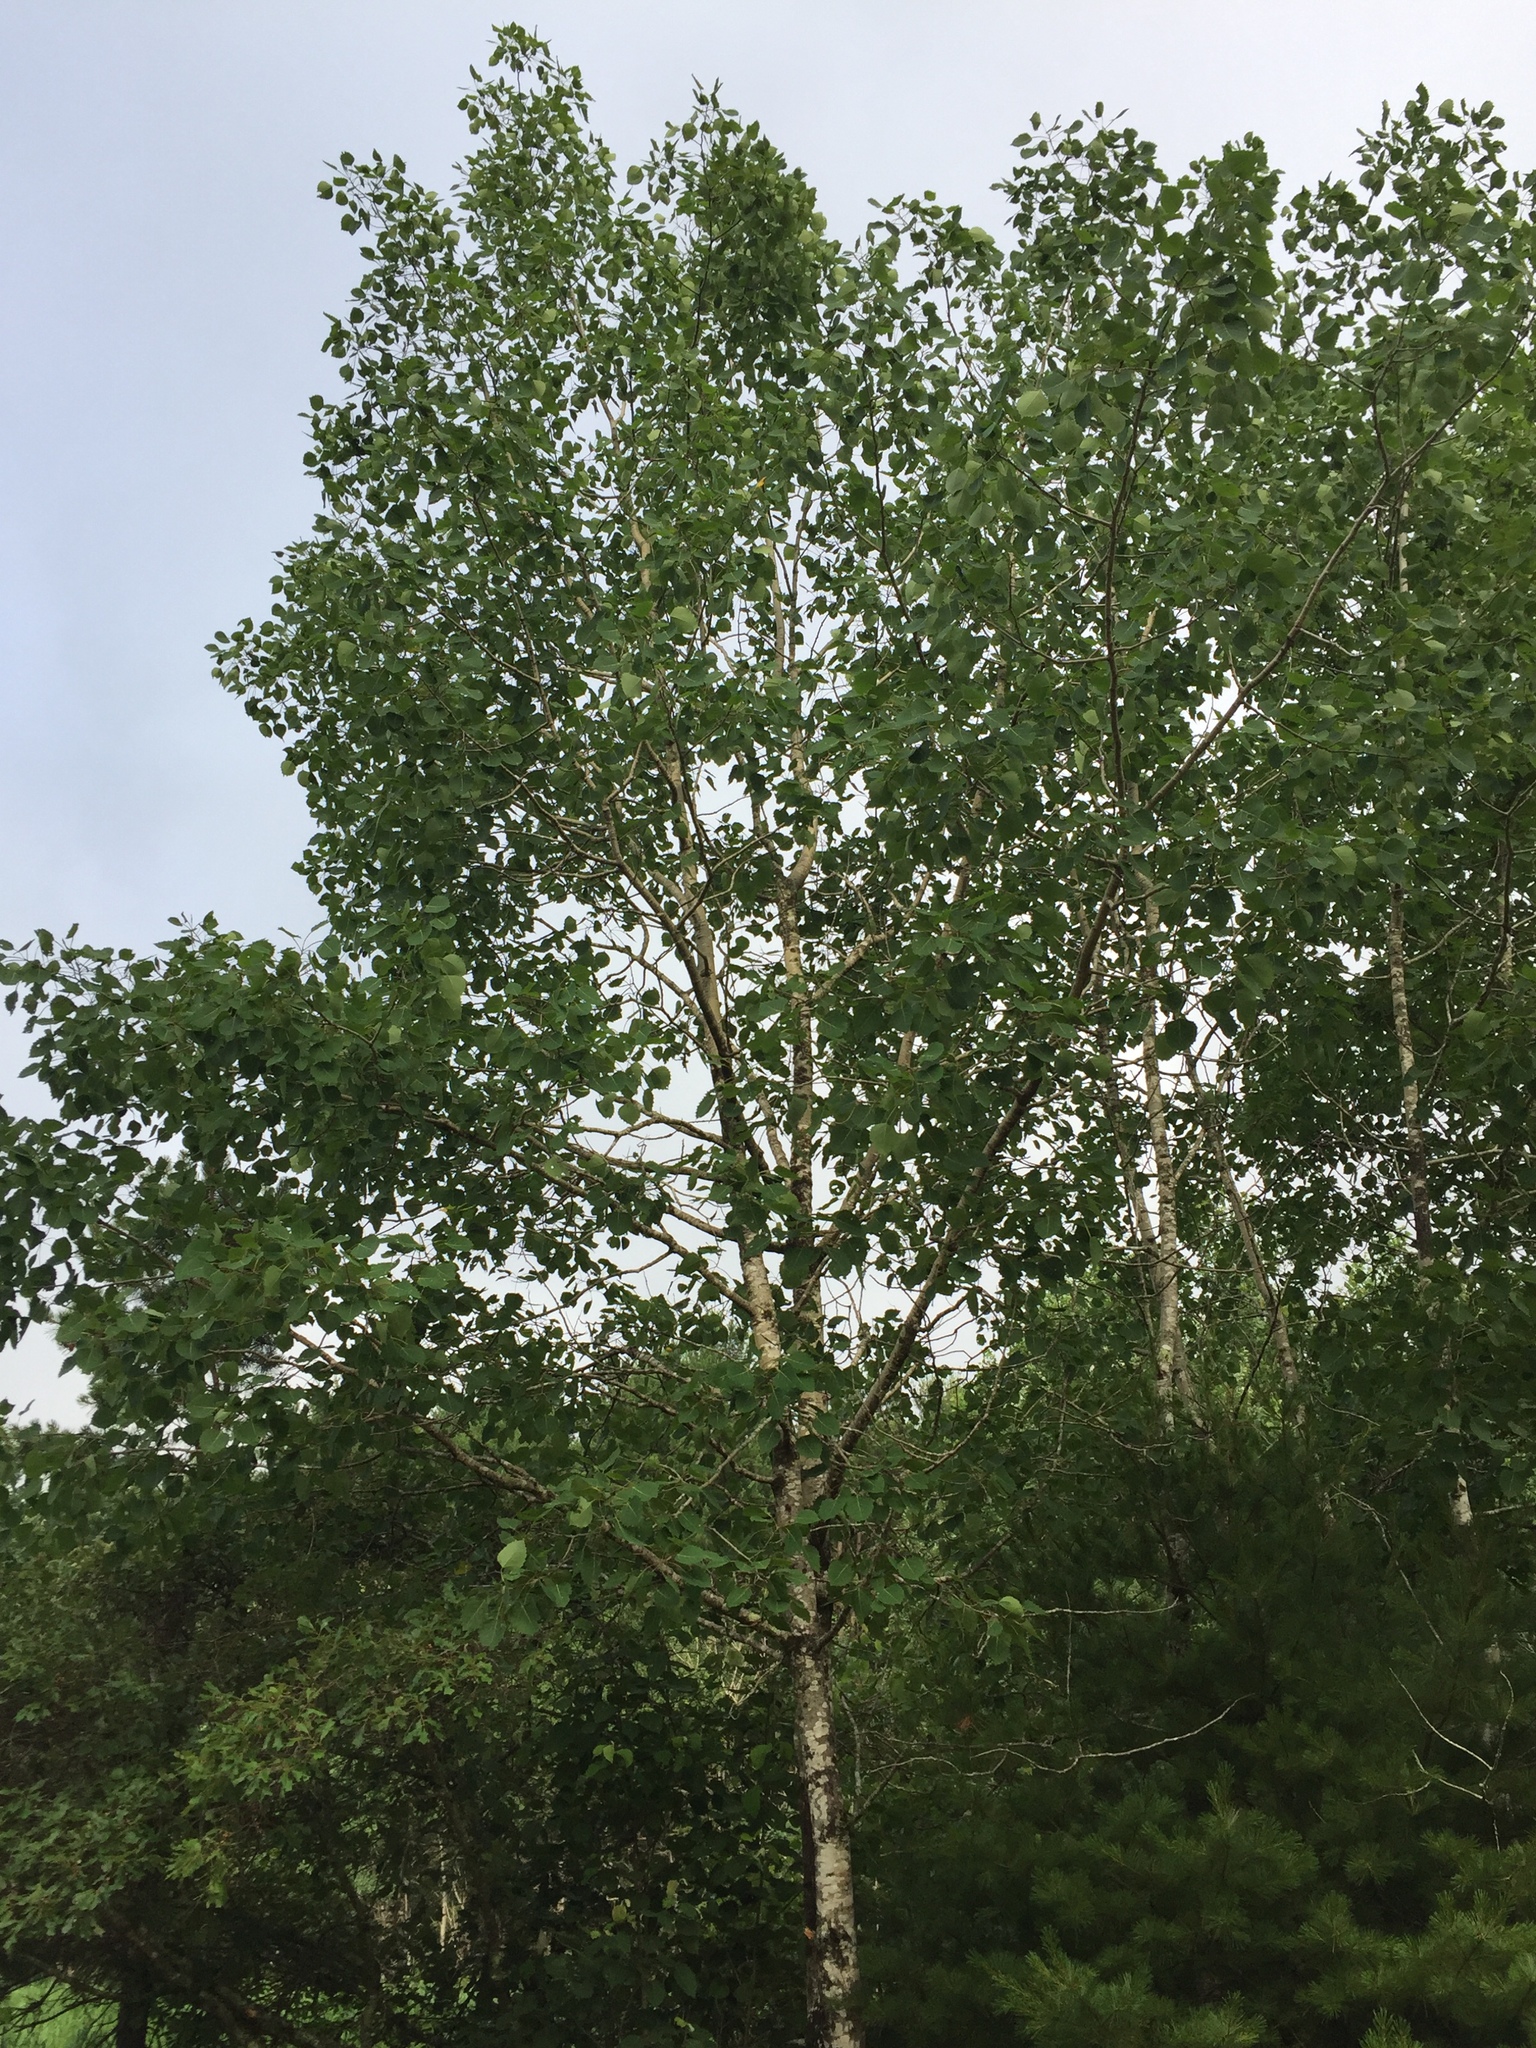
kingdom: Plantae
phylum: Tracheophyta
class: Magnoliopsida
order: Malpighiales
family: Salicaceae
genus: Populus
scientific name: Populus grandidentata
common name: Bigtooth aspen
